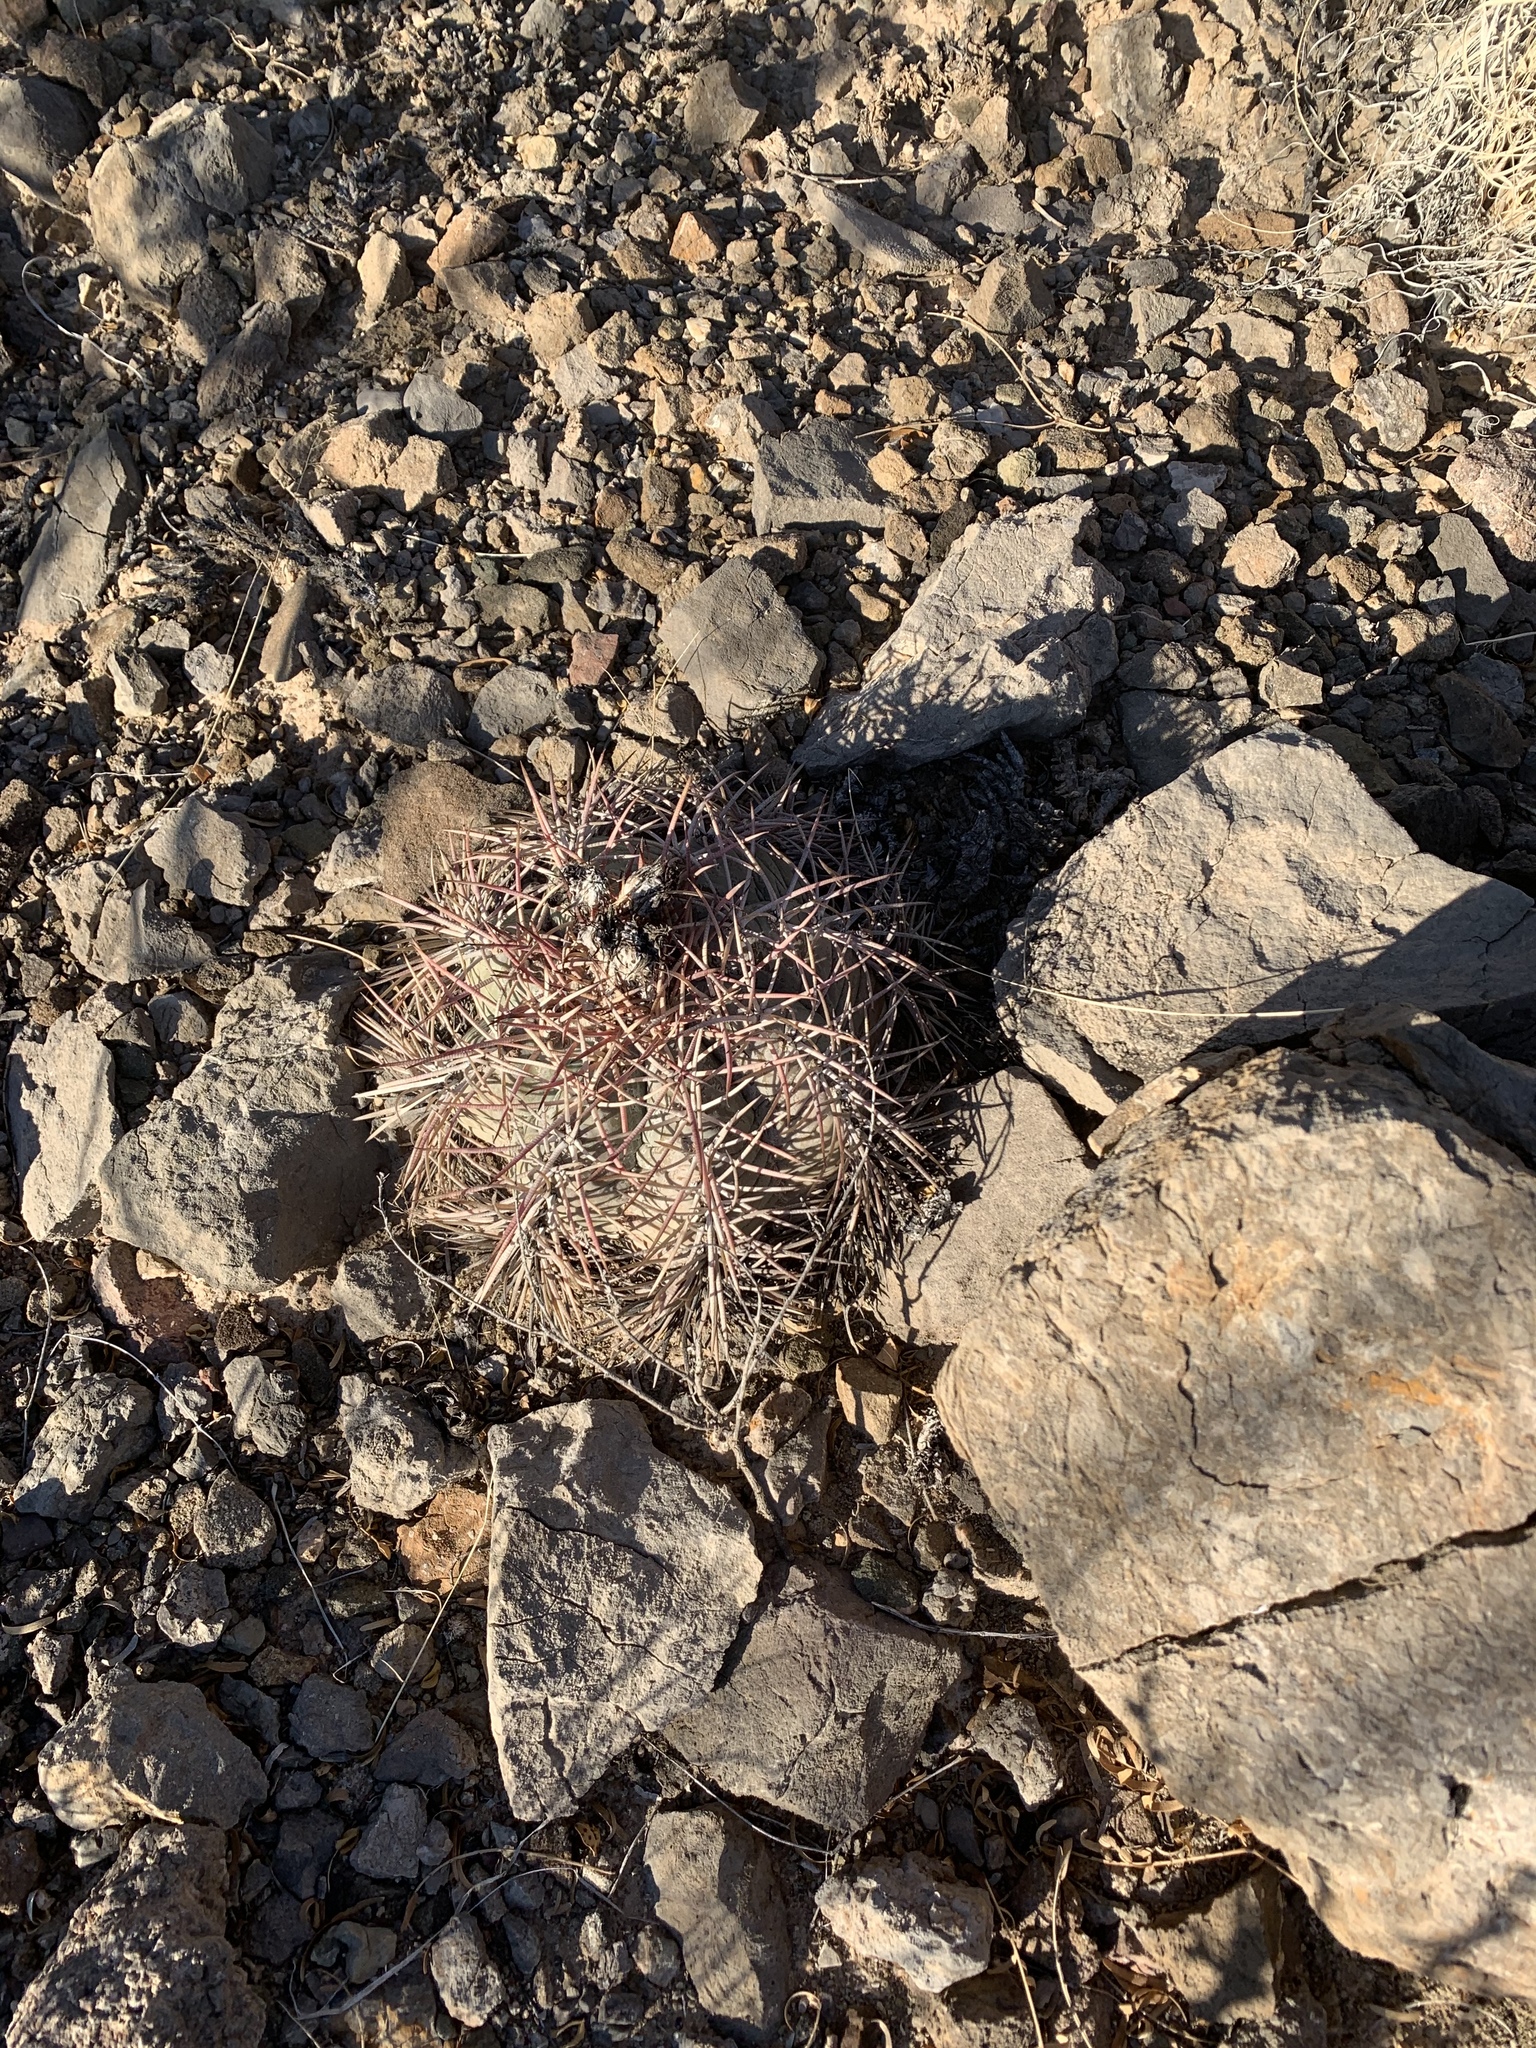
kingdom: Plantae
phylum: Tracheophyta
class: Magnoliopsida
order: Caryophyllales
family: Cactaceae
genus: Echinocactus
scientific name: Echinocactus horizonthalonius
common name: Devilshead
